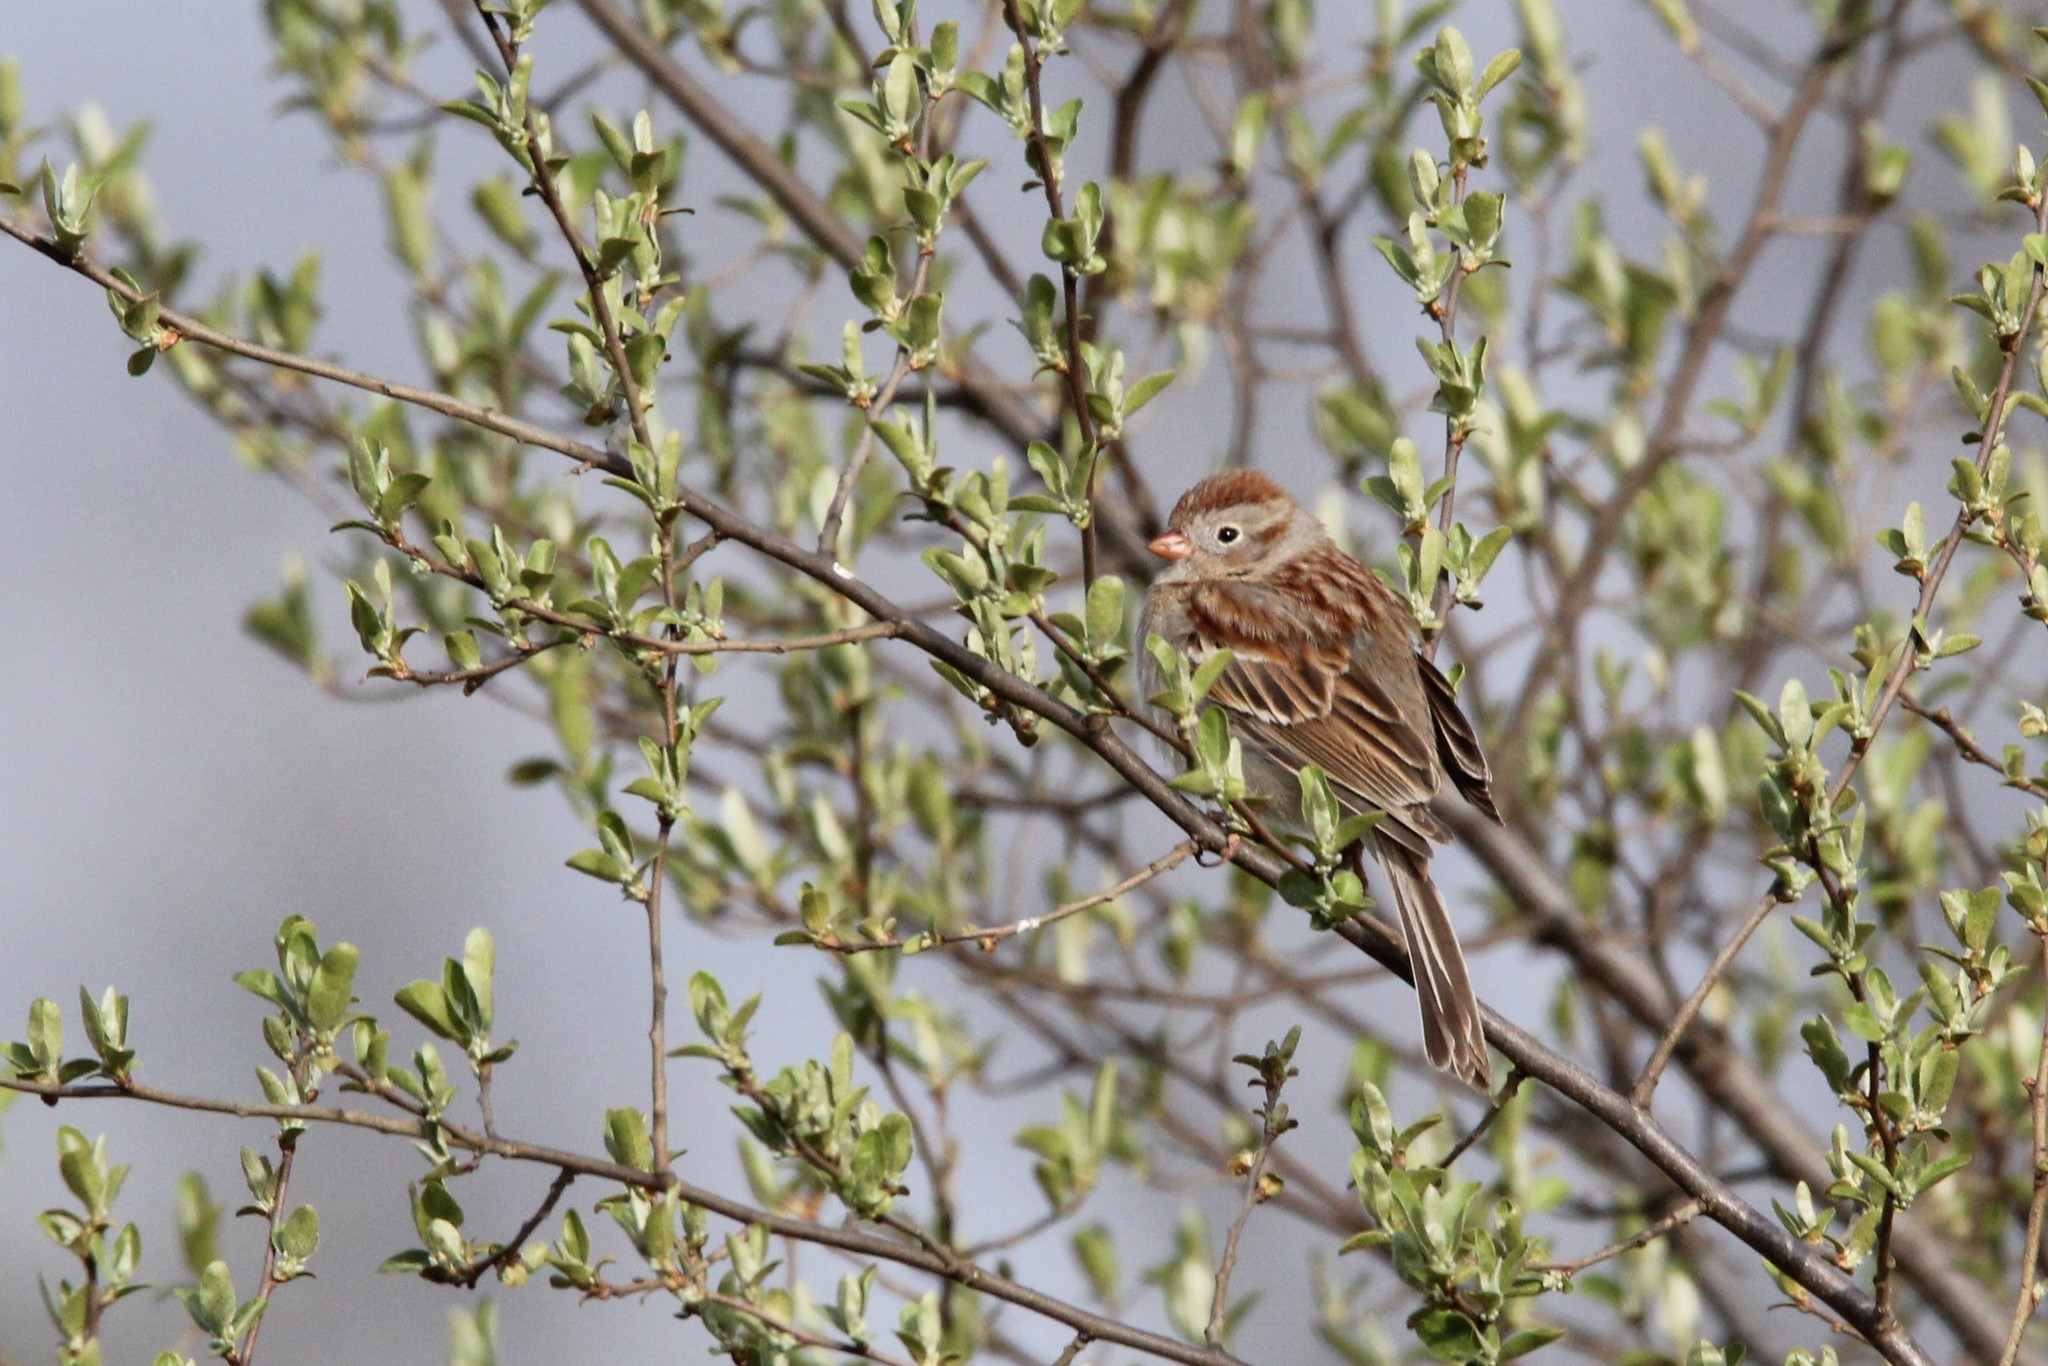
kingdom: Animalia
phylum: Chordata
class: Aves
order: Passeriformes
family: Passerellidae
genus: Spizella
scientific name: Spizella pusilla
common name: Field sparrow
